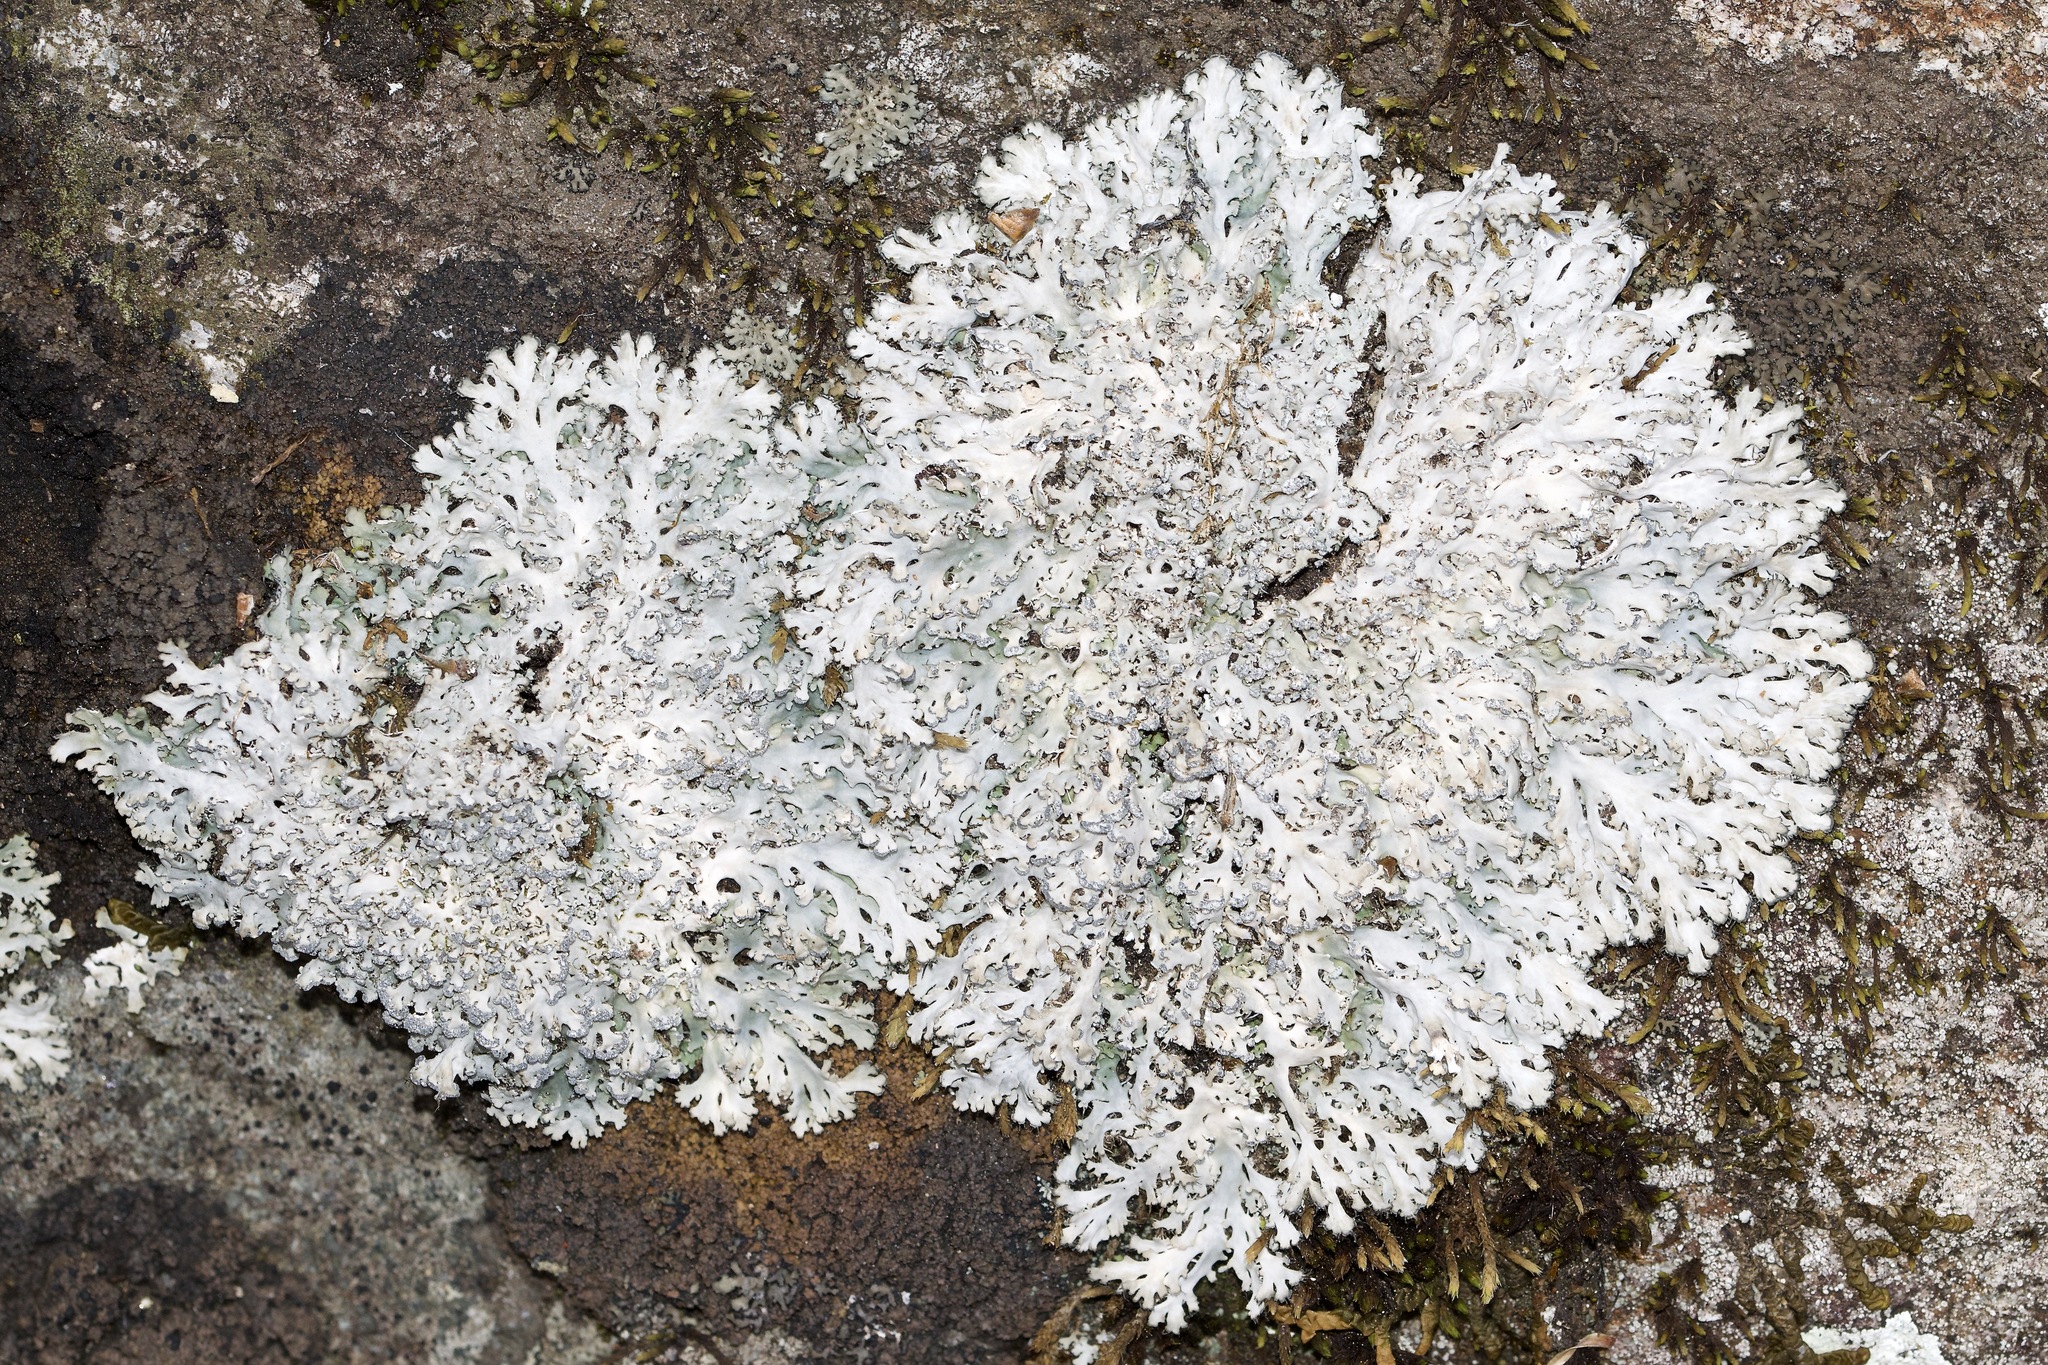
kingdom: Fungi
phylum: Ascomycota
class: Lecanoromycetes
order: Caliciales
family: Physciaceae
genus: Heterodermia
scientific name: Heterodermia speciosa
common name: Powdered fringe lichen
